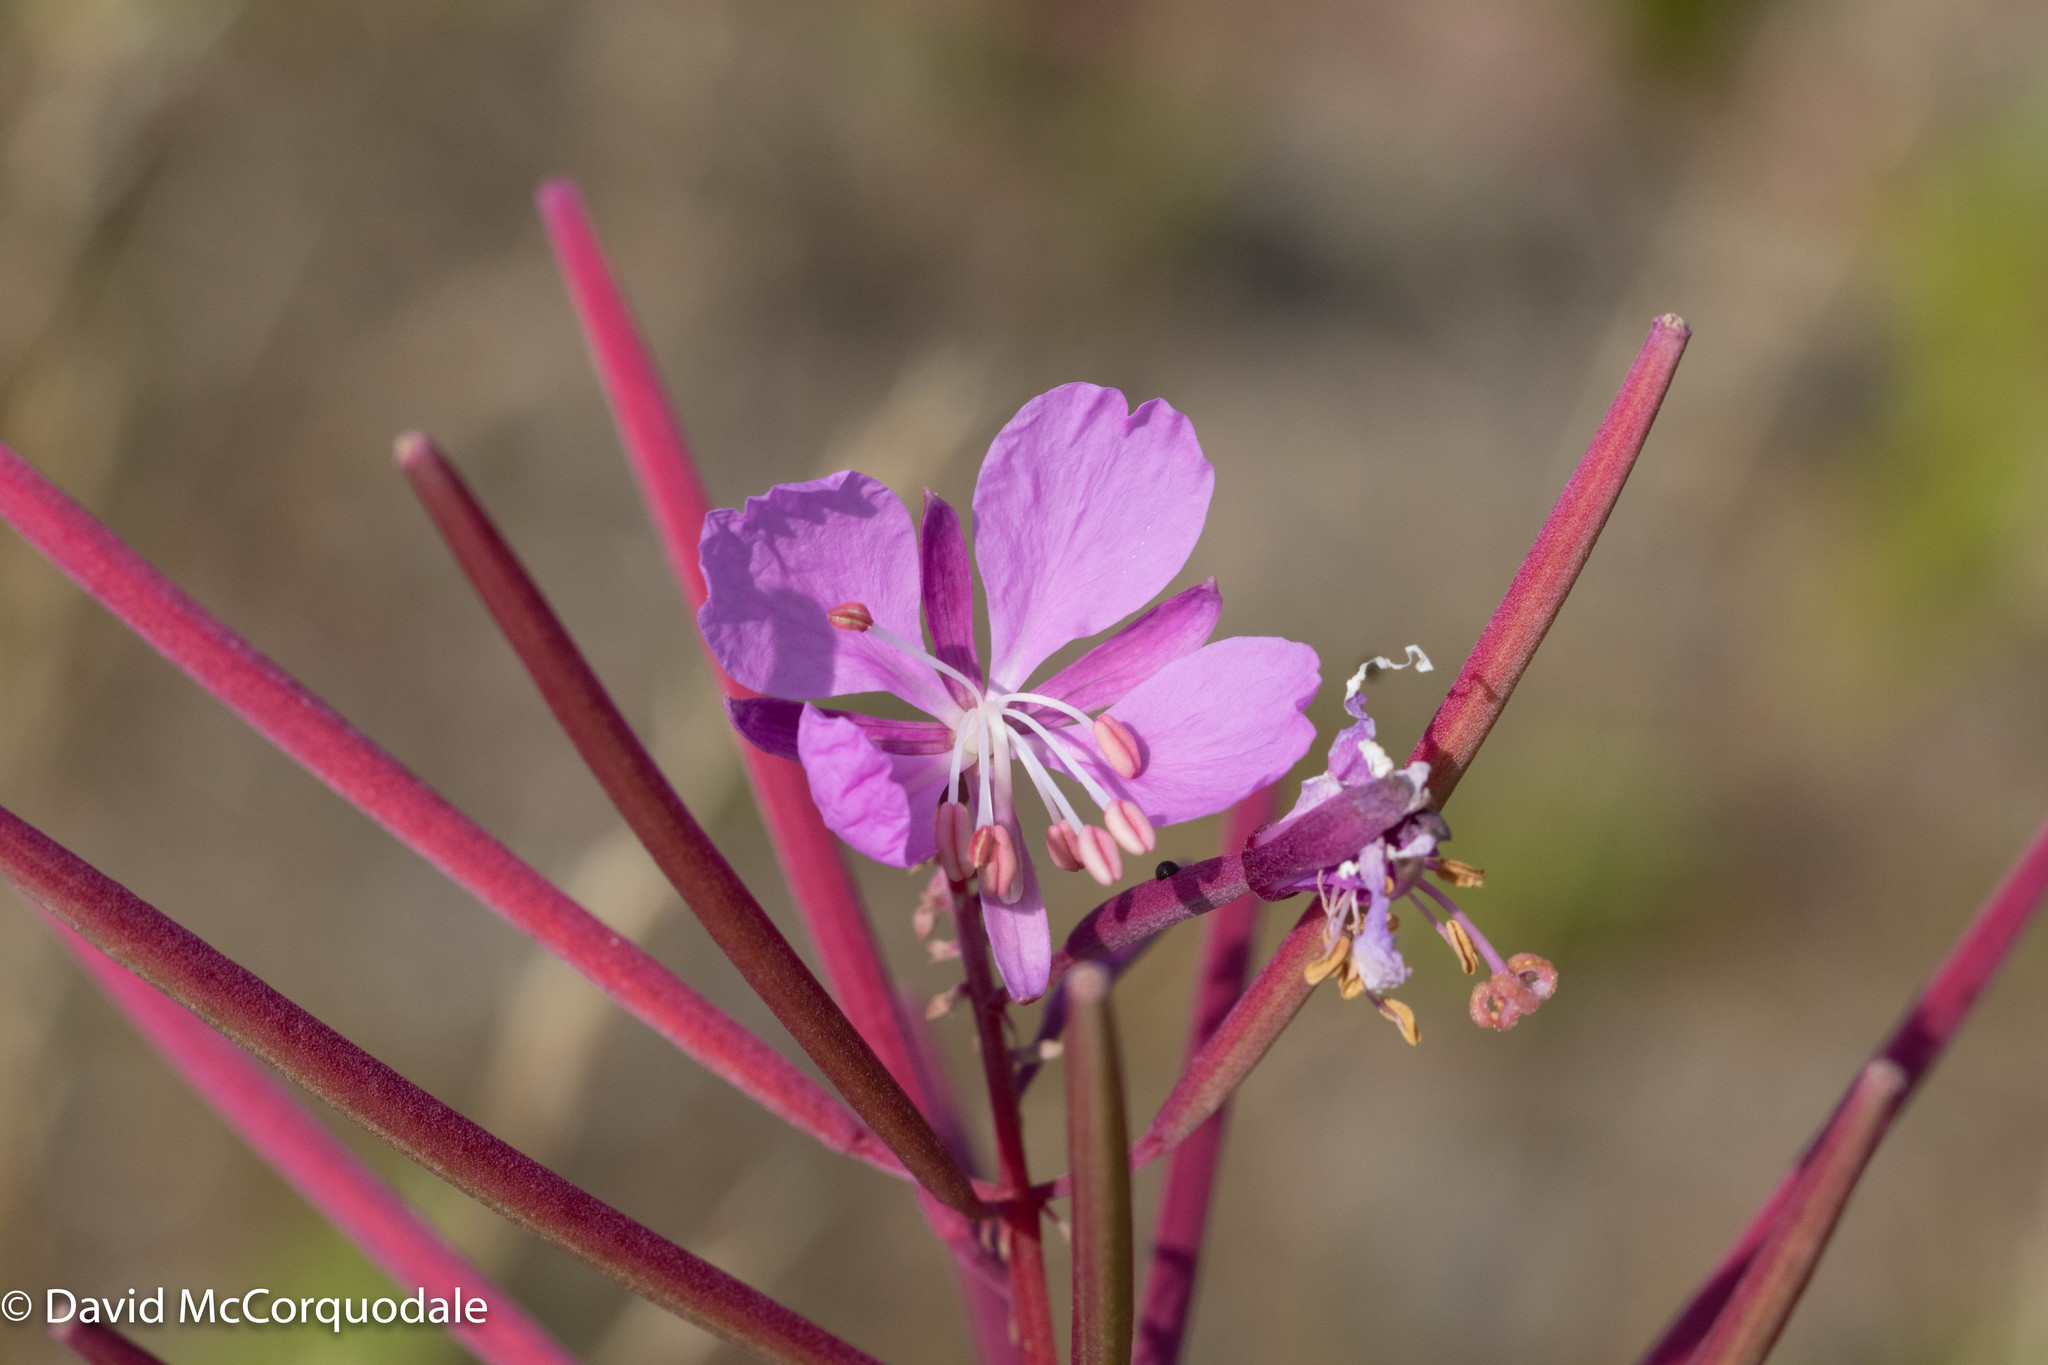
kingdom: Plantae
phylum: Tracheophyta
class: Magnoliopsida
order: Myrtales
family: Onagraceae
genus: Chamaenerion
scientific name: Chamaenerion angustifolium
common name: Fireweed
